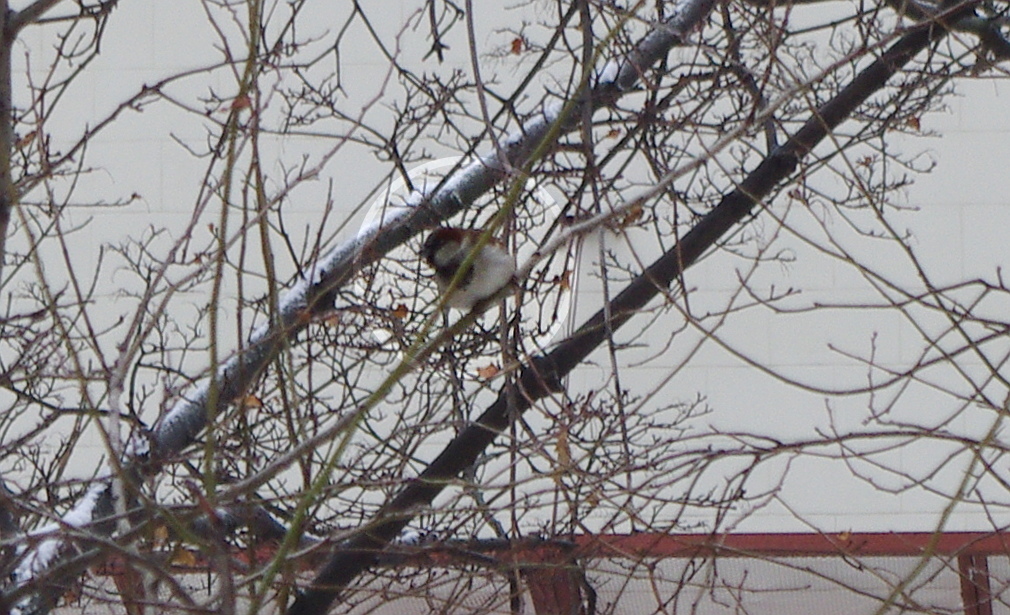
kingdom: Animalia
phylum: Chordata
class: Aves
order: Passeriformes
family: Passeridae
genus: Passer
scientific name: Passer domesticus
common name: House sparrow
